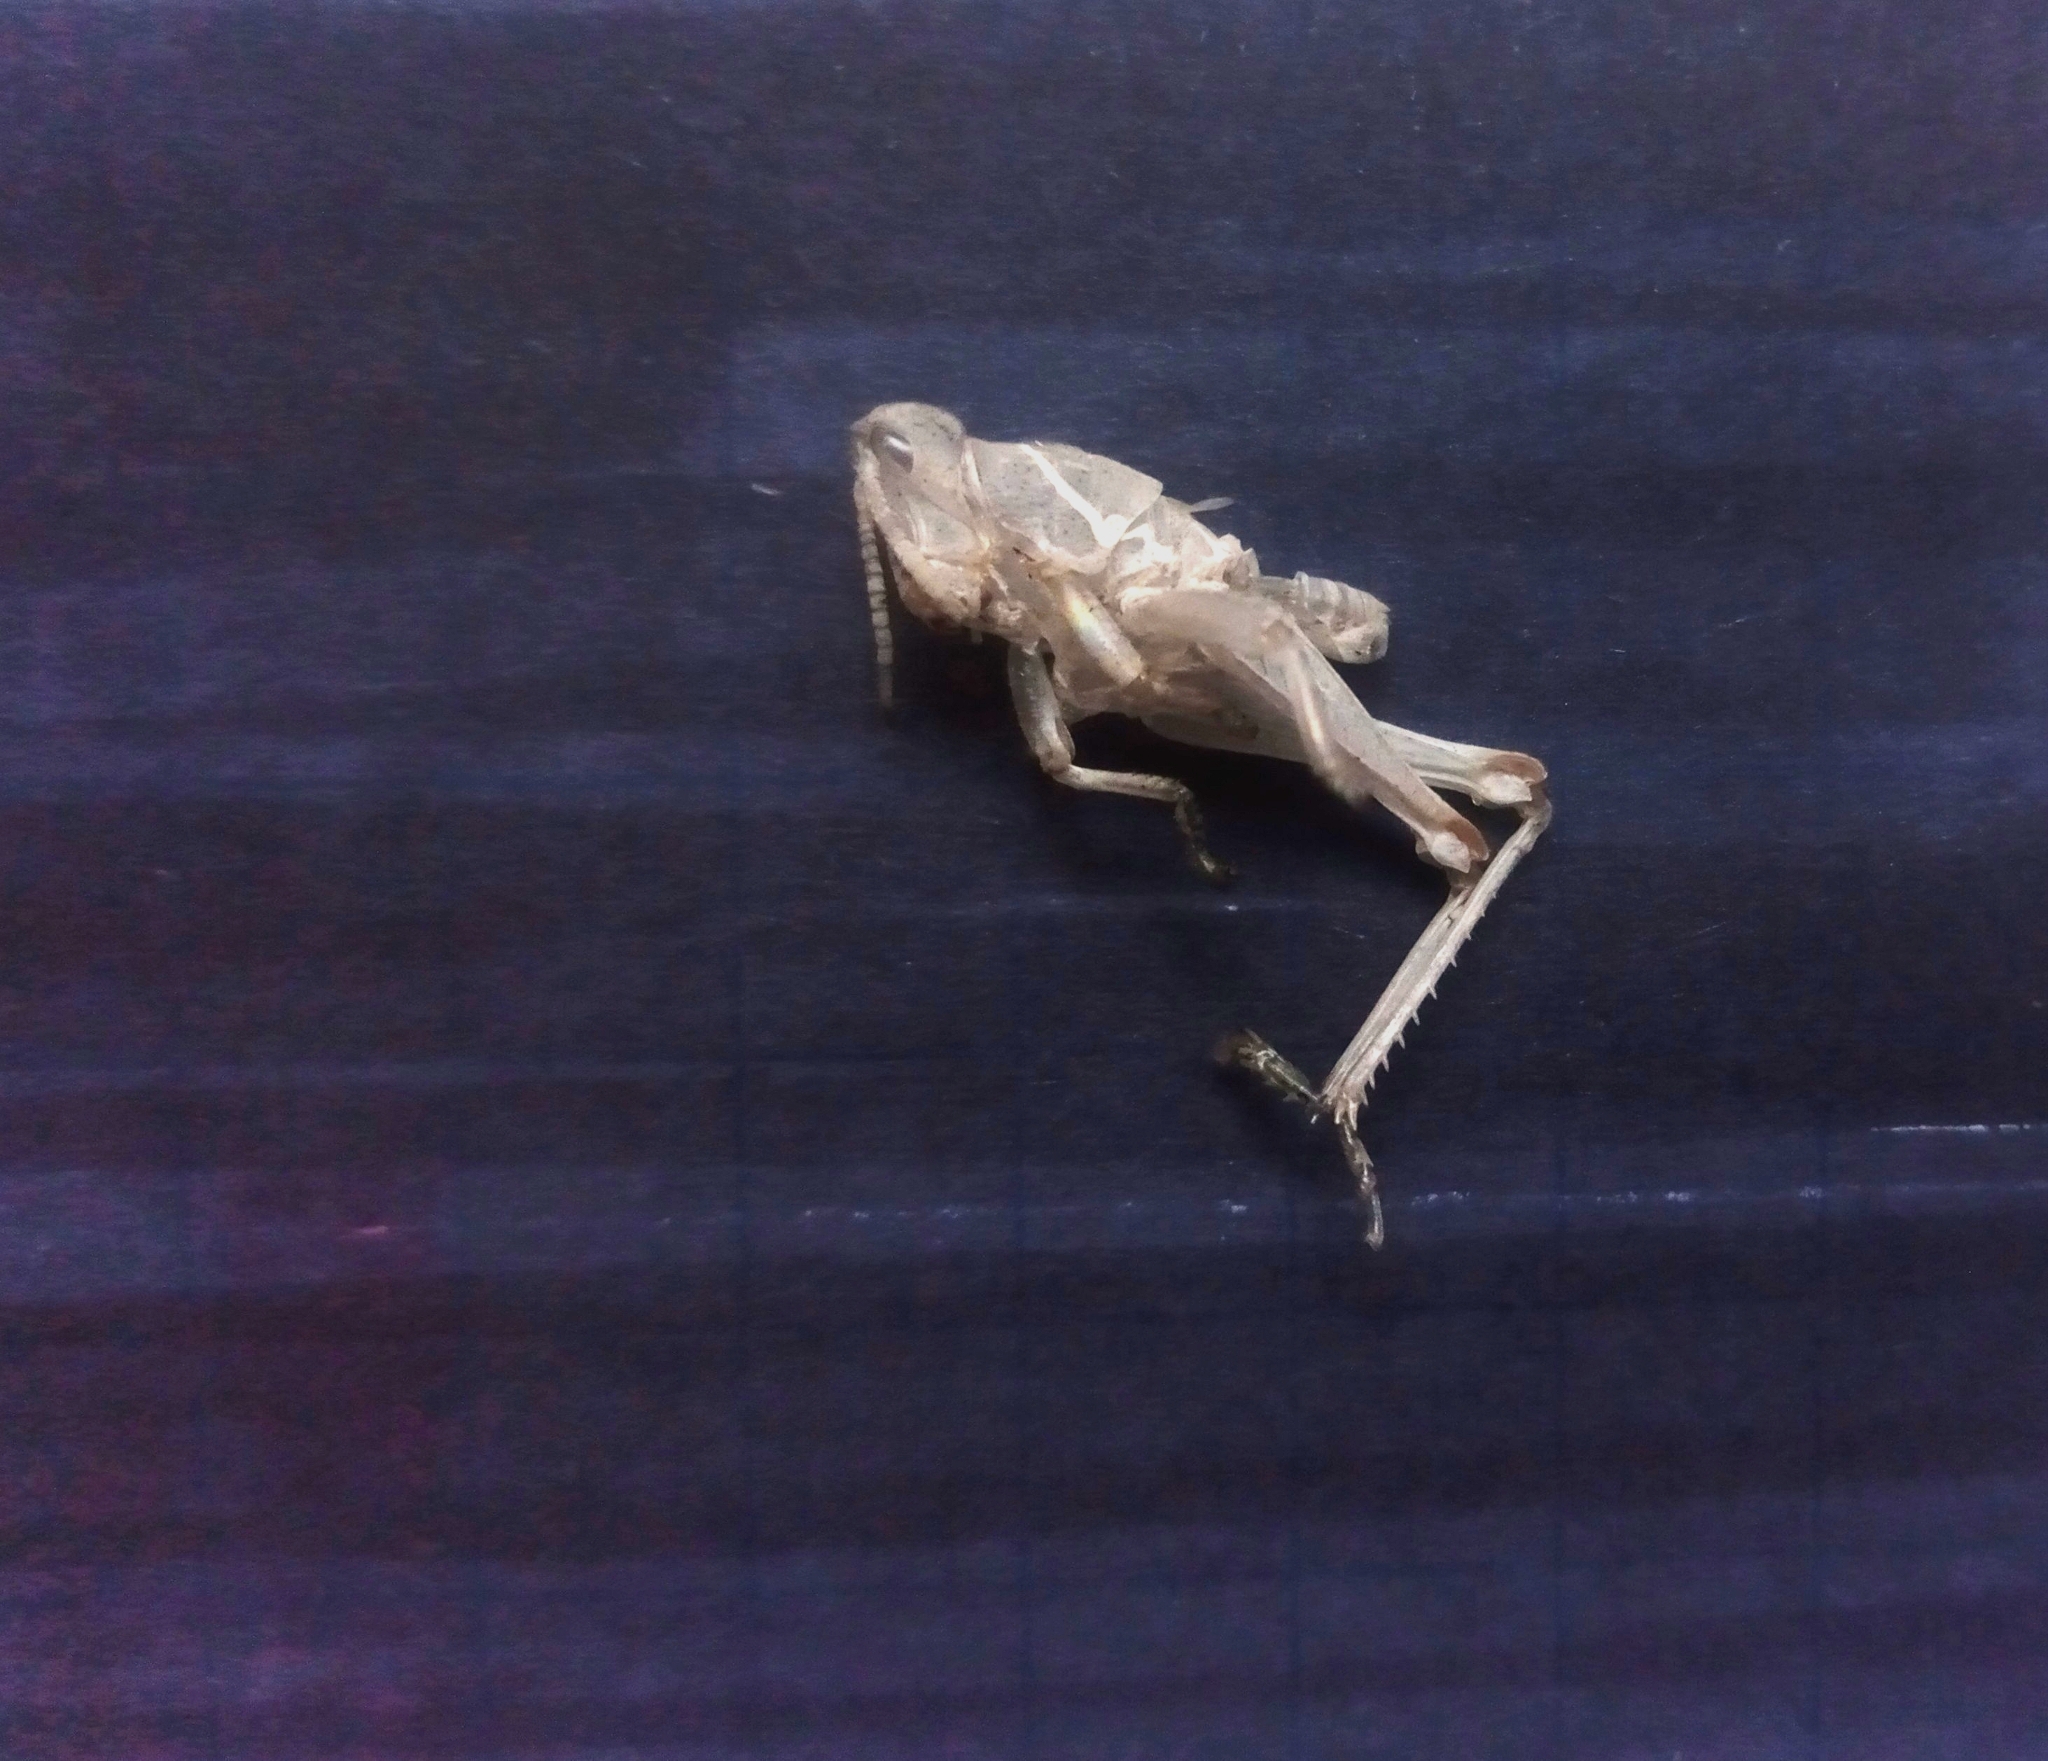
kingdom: Animalia
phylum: Arthropoda
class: Insecta
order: Orthoptera
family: Pyrgomorphidae
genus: Sphenarium
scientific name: Sphenarium purpurascens
